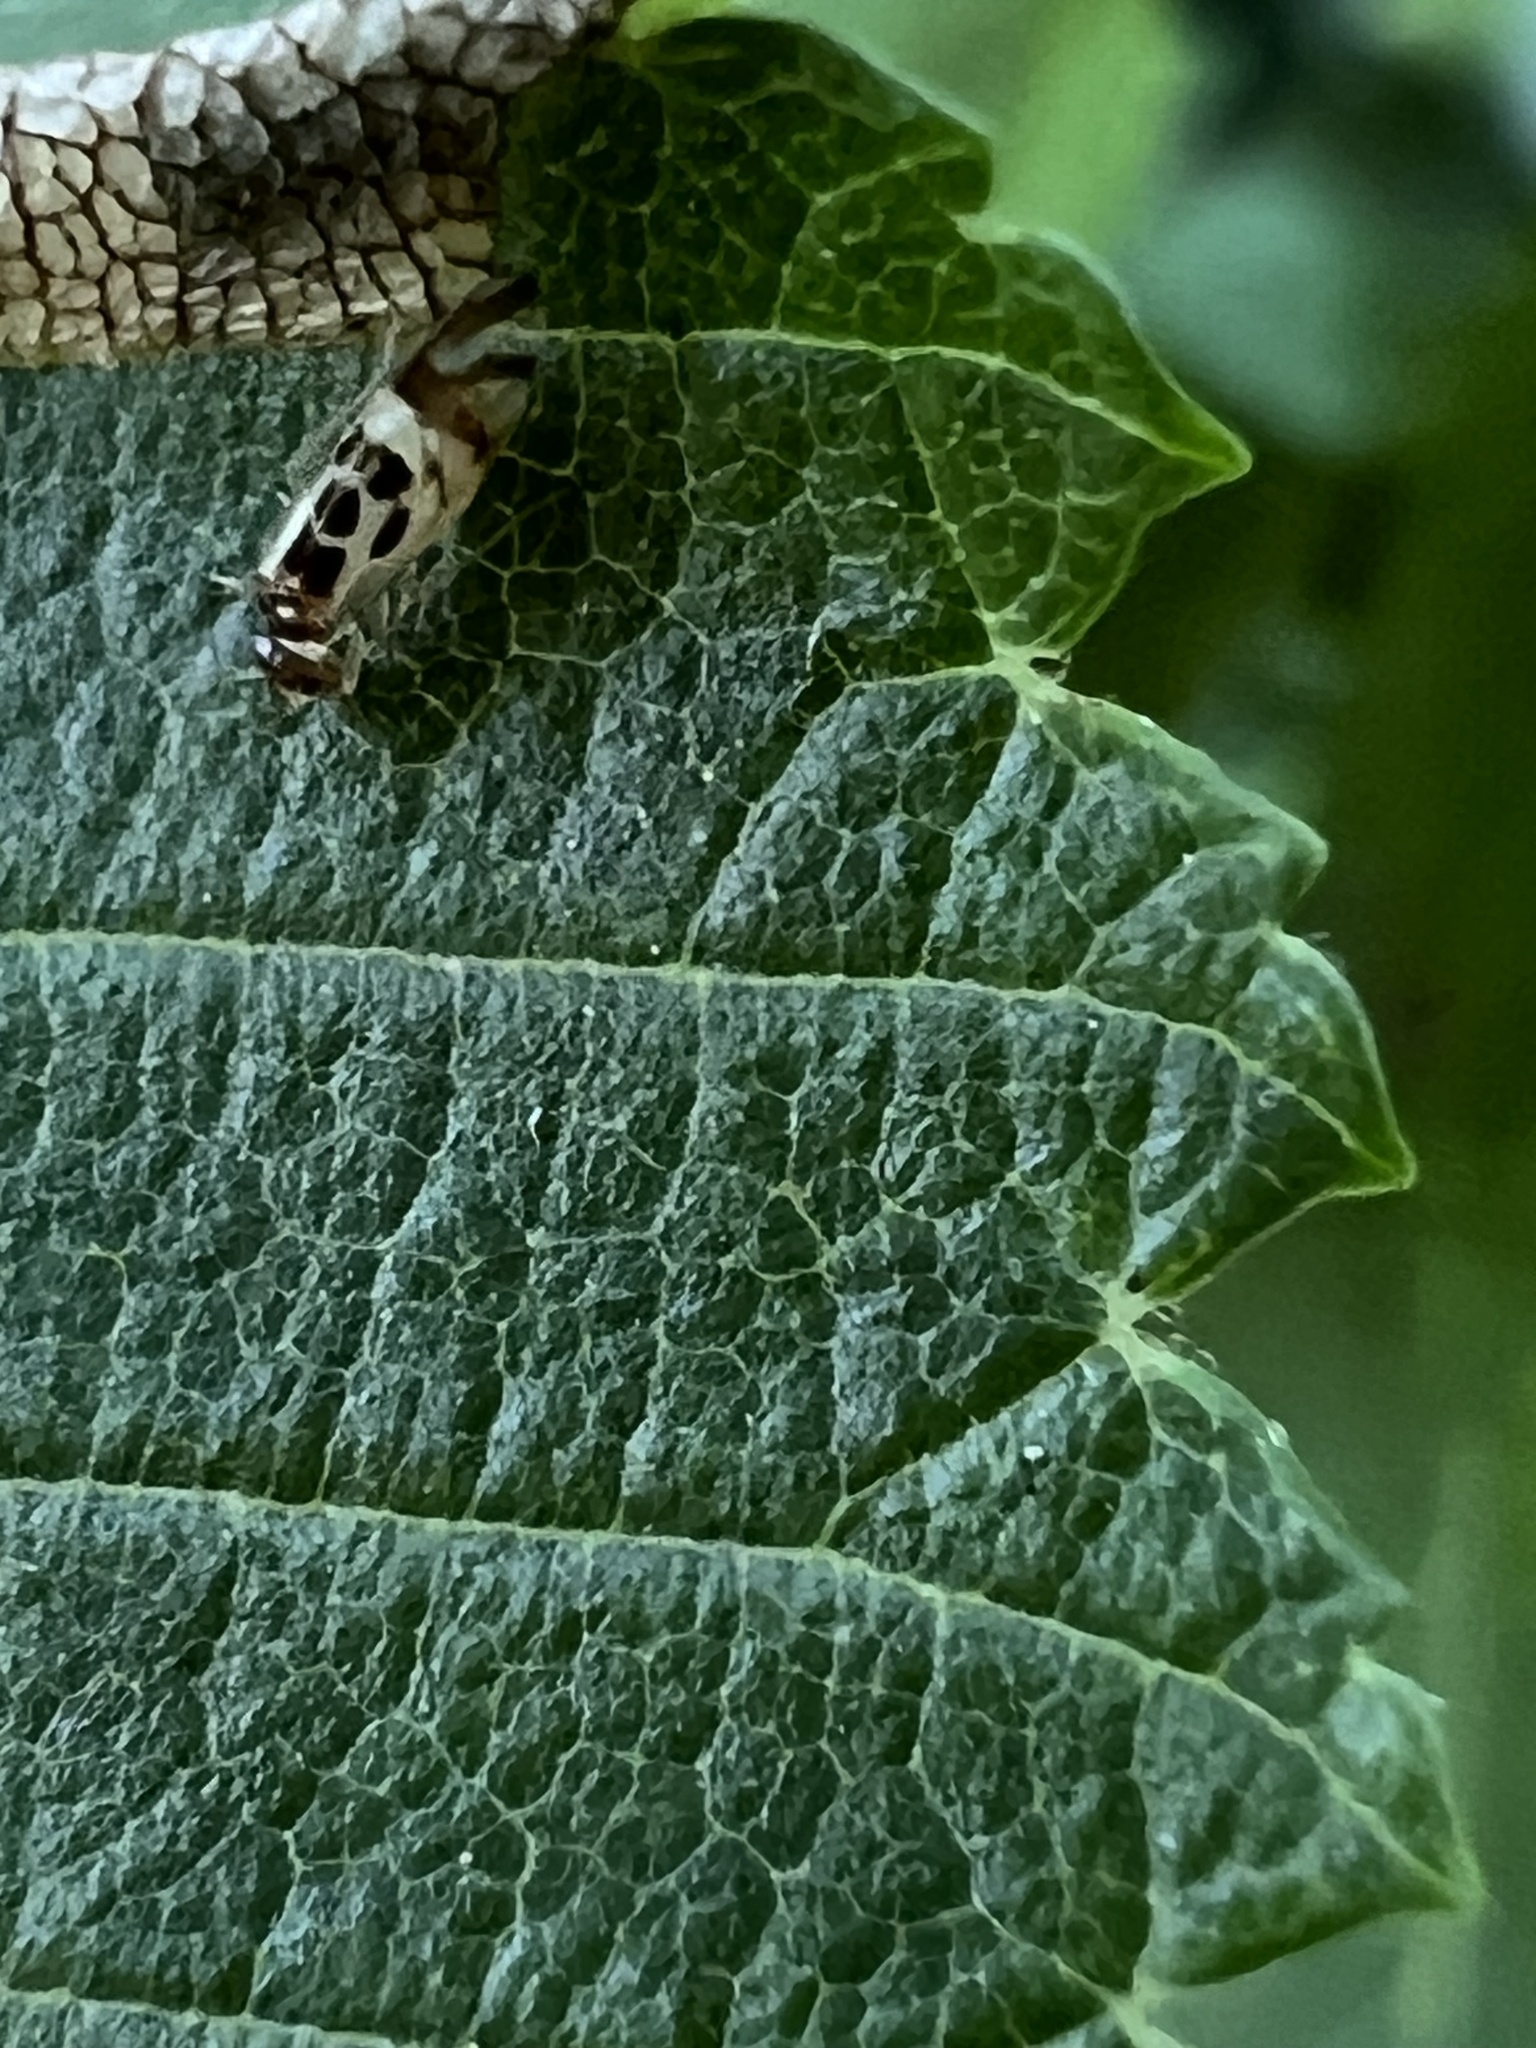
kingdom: Animalia
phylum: Arthropoda
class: Insecta
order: Psocodea
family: Stenopsocidae
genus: Graphopsocus
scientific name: Graphopsocus cruciatus
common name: Lizard bark louse
